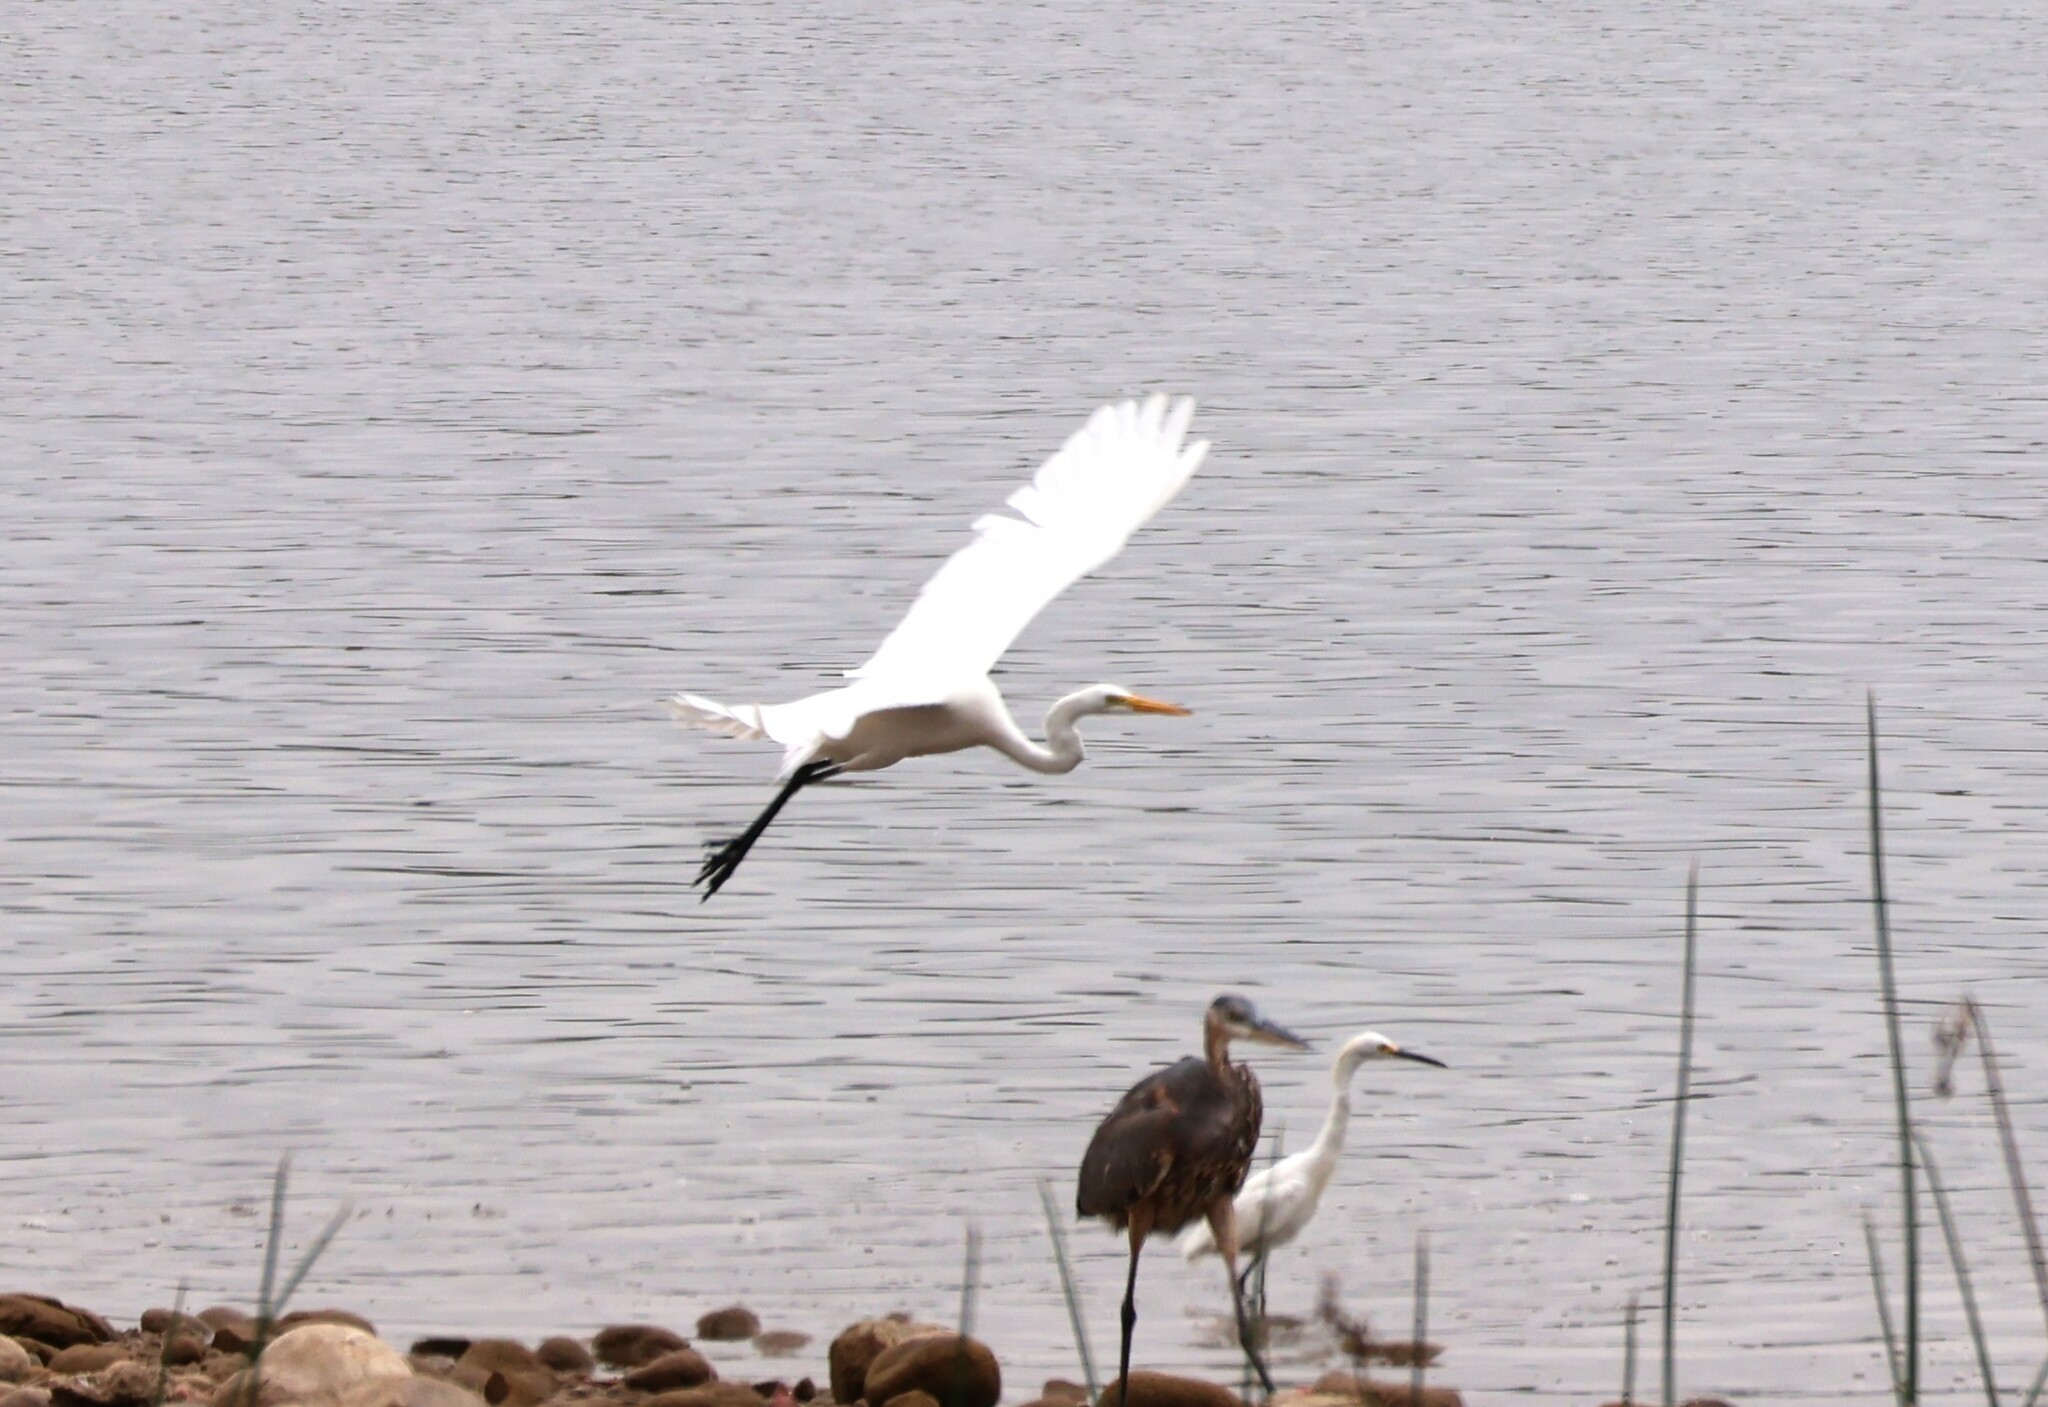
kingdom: Animalia
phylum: Chordata
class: Aves
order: Pelecaniformes
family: Ardeidae
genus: Ardea
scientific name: Ardea alba
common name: Great egret
